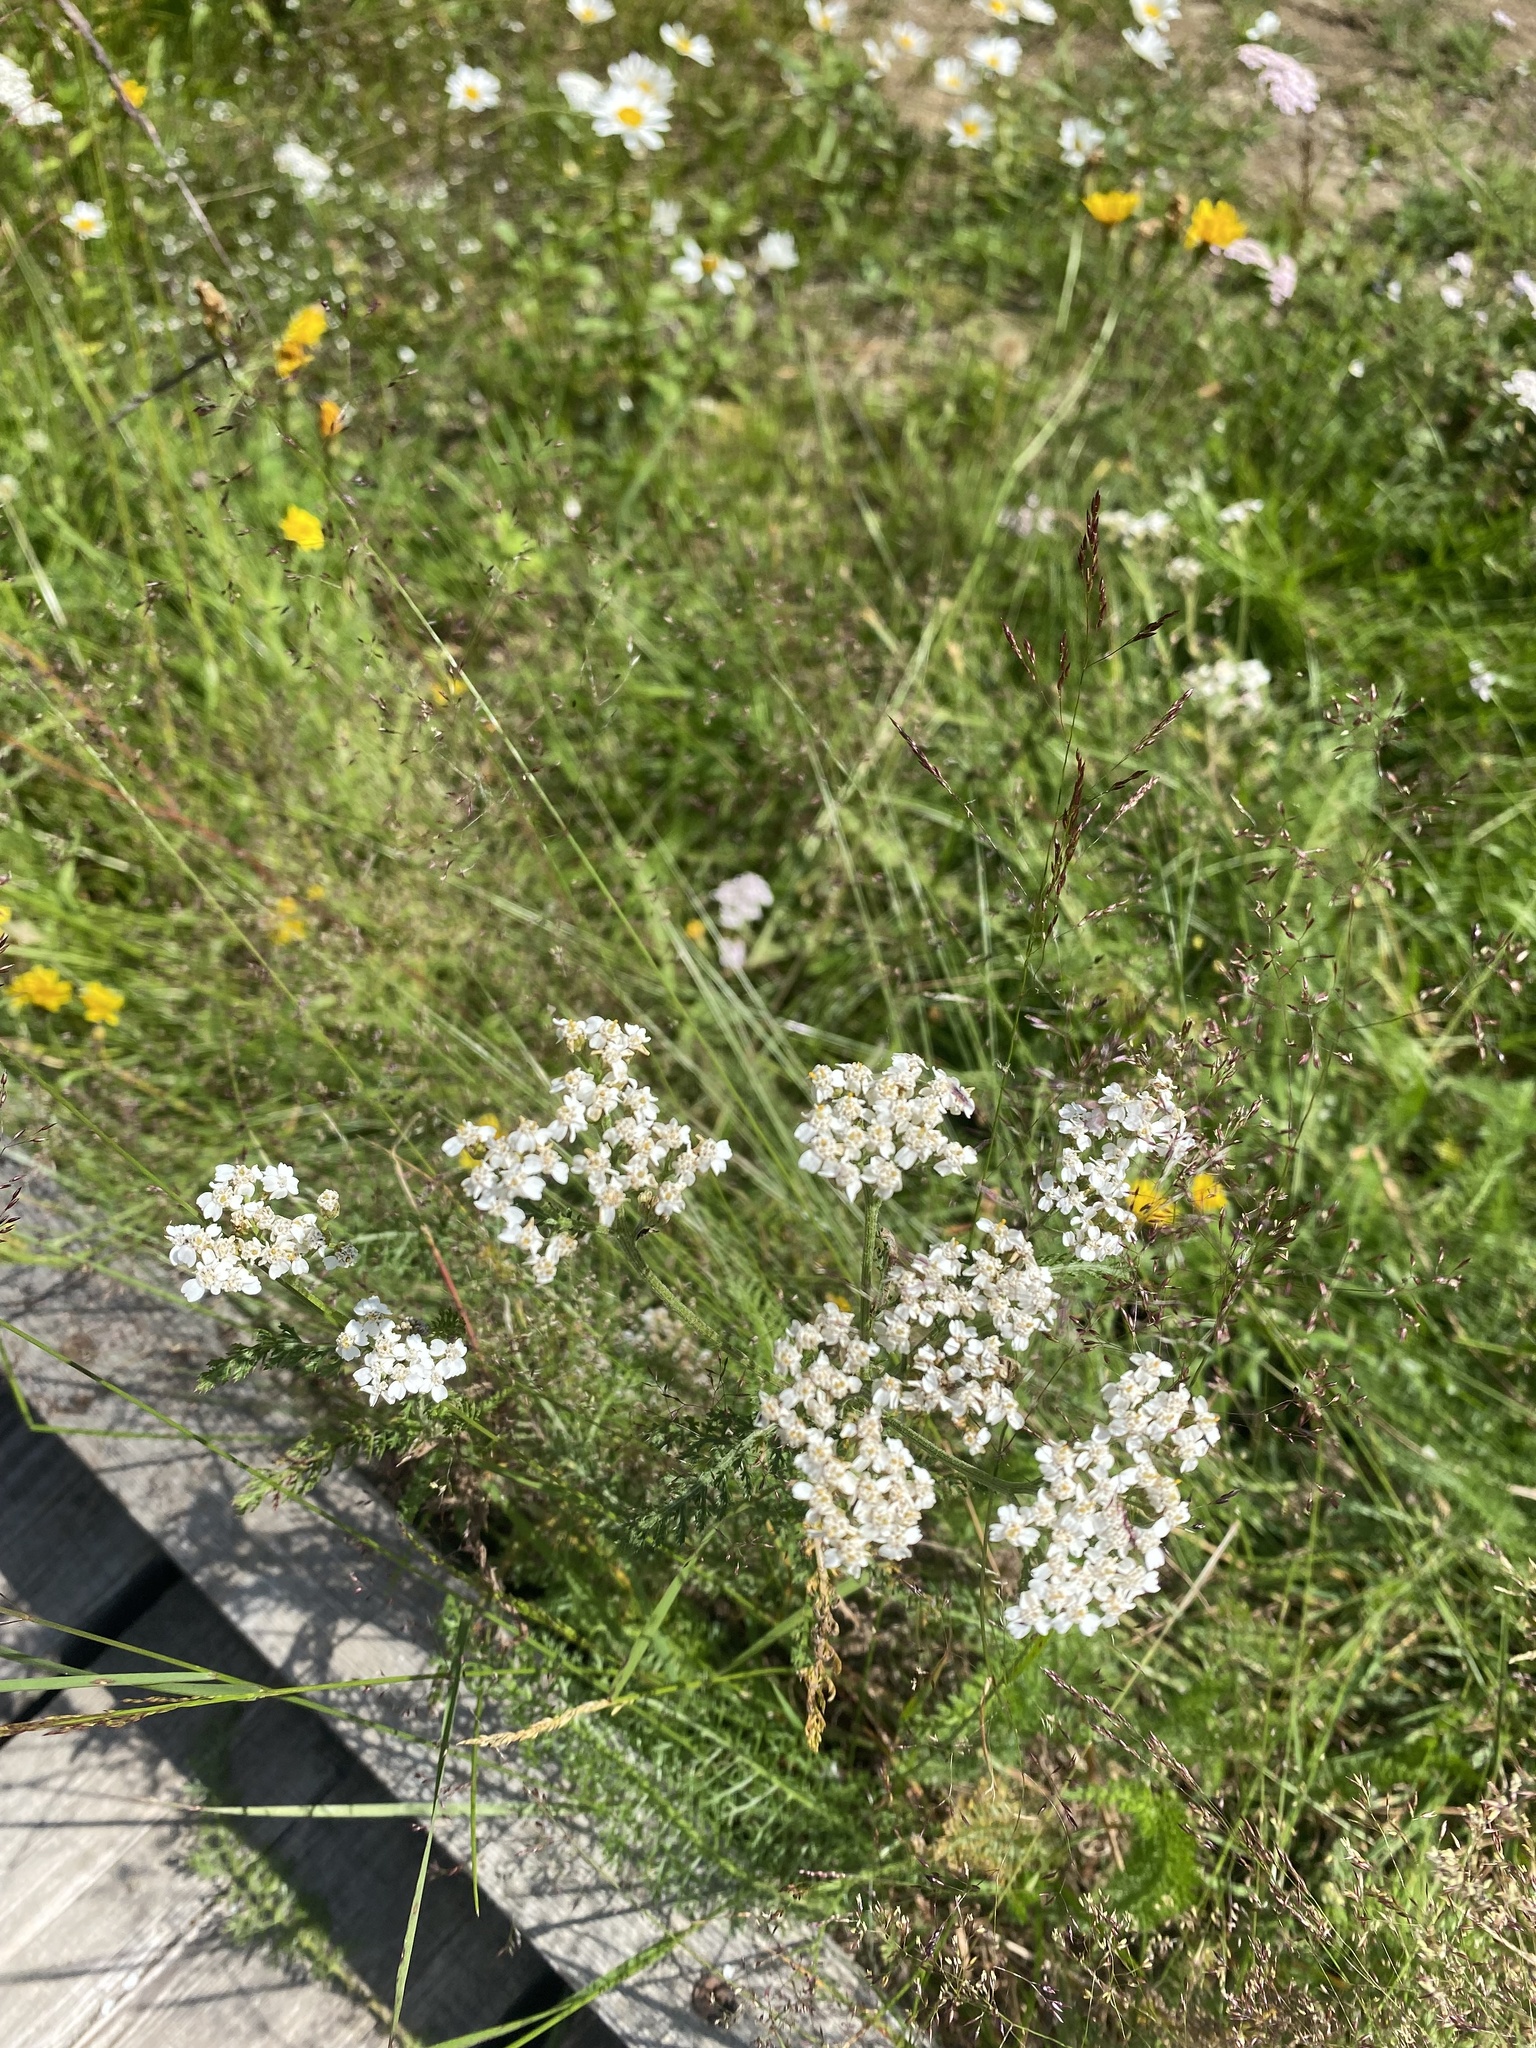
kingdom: Plantae
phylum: Tracheophyta
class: Magnoliopsida
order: Asterales
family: Asteraceae
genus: Achillea
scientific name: Achillea millefolium
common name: Yarrow
